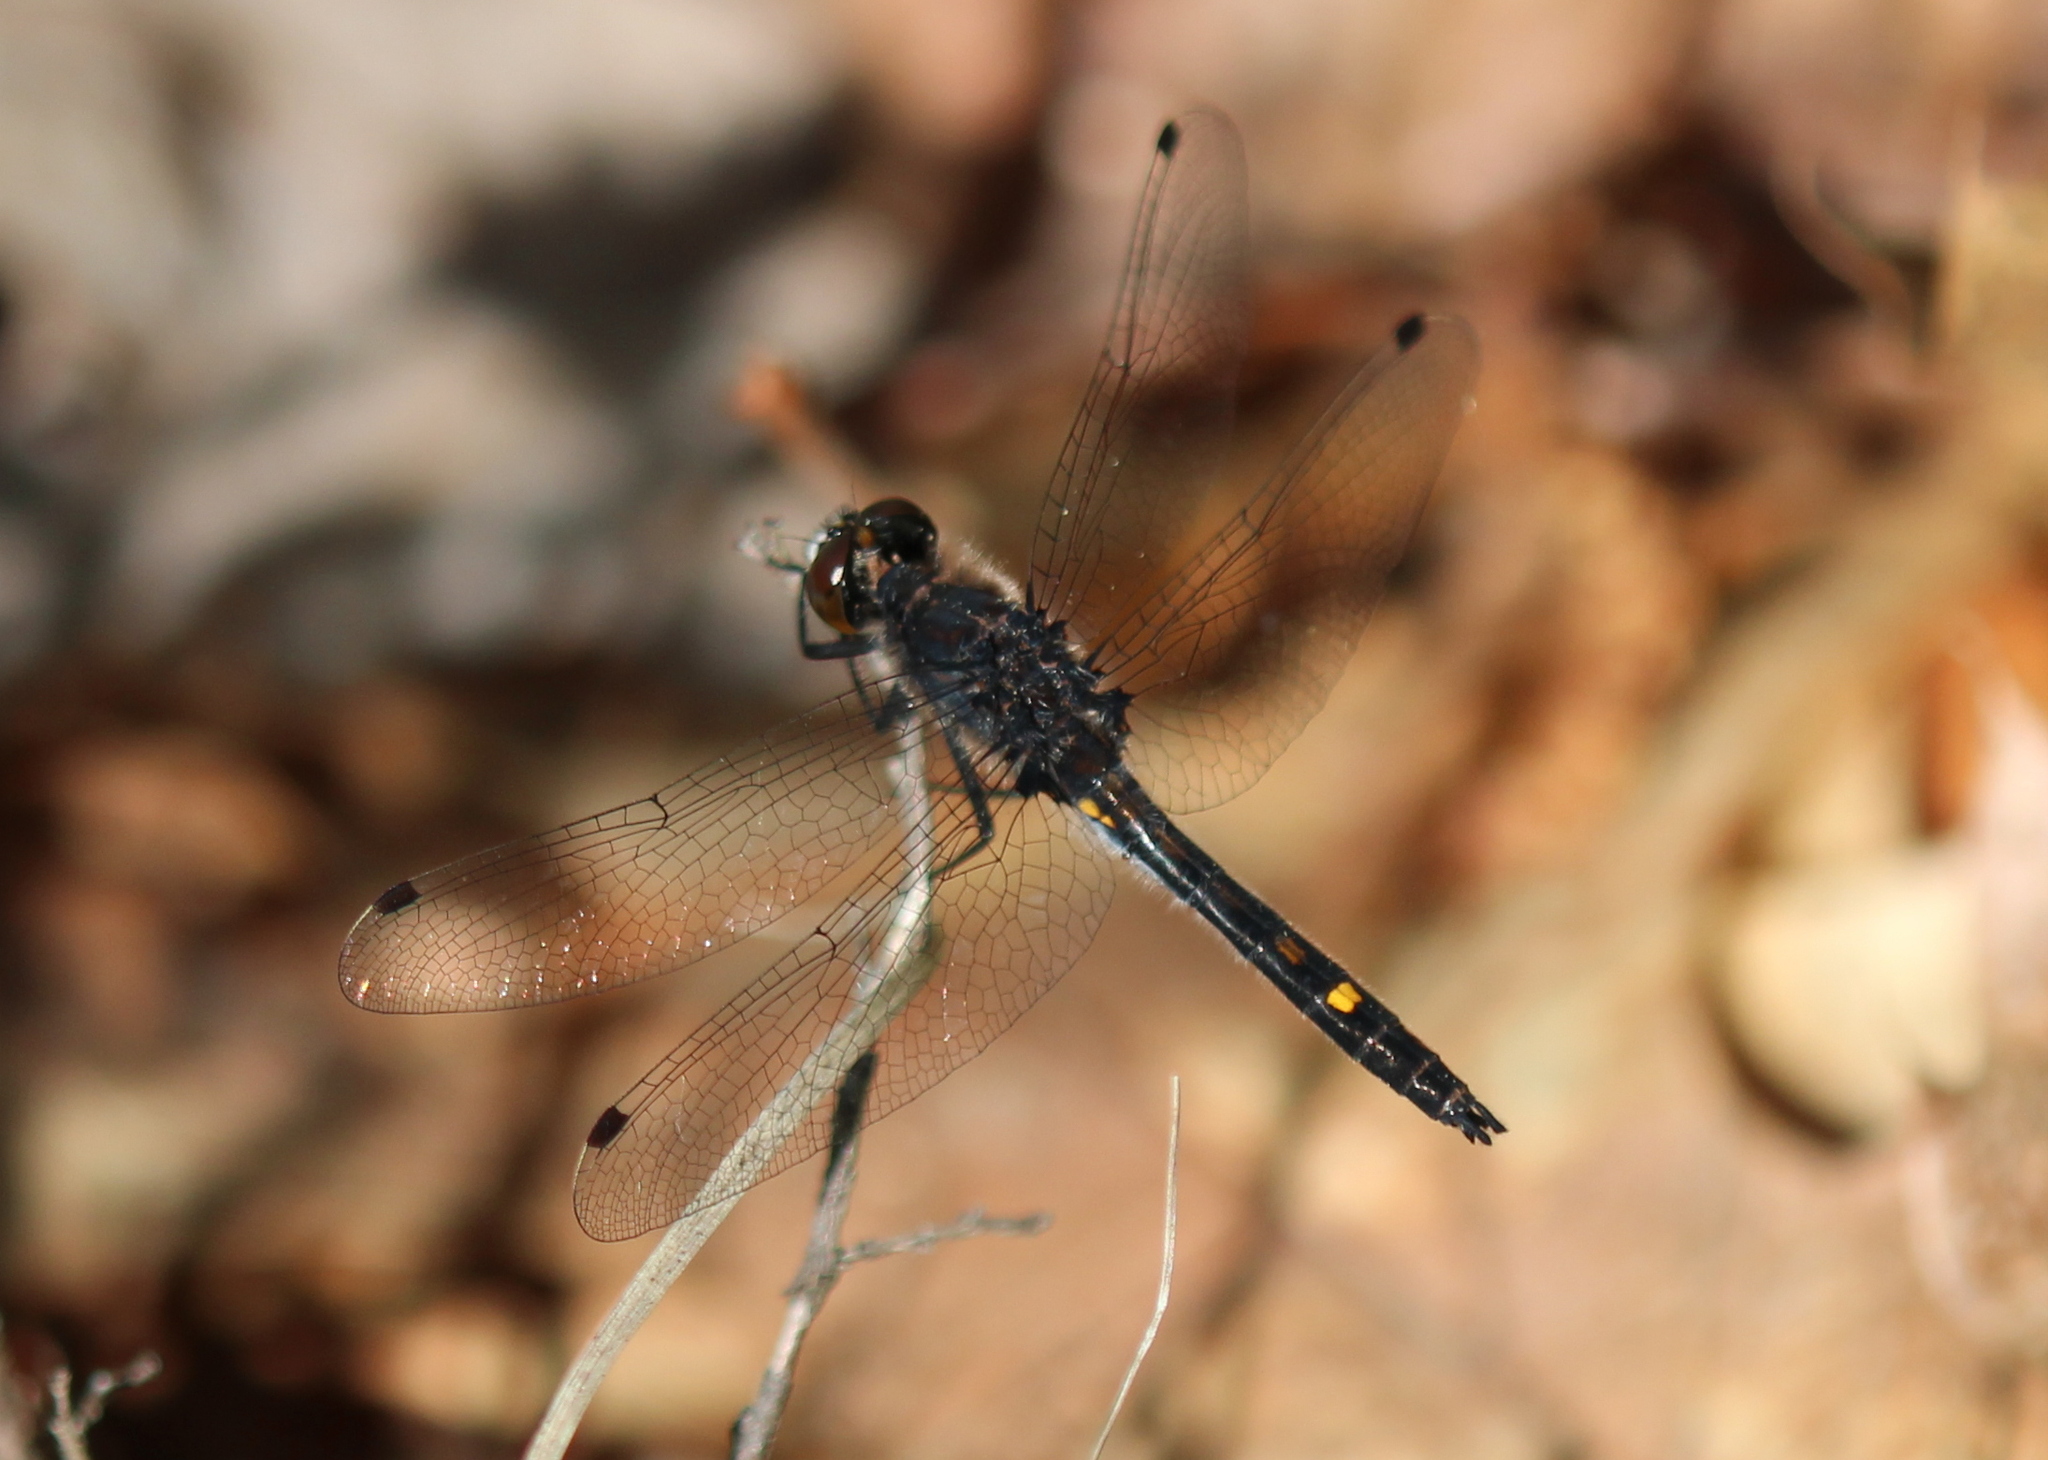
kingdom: Animalia
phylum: Arthropoda
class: Insecta
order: Odonata
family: Libellulidae
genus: Leucorrhinia
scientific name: Leucorrhinia intacta
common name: Dot-tailed whiteface
